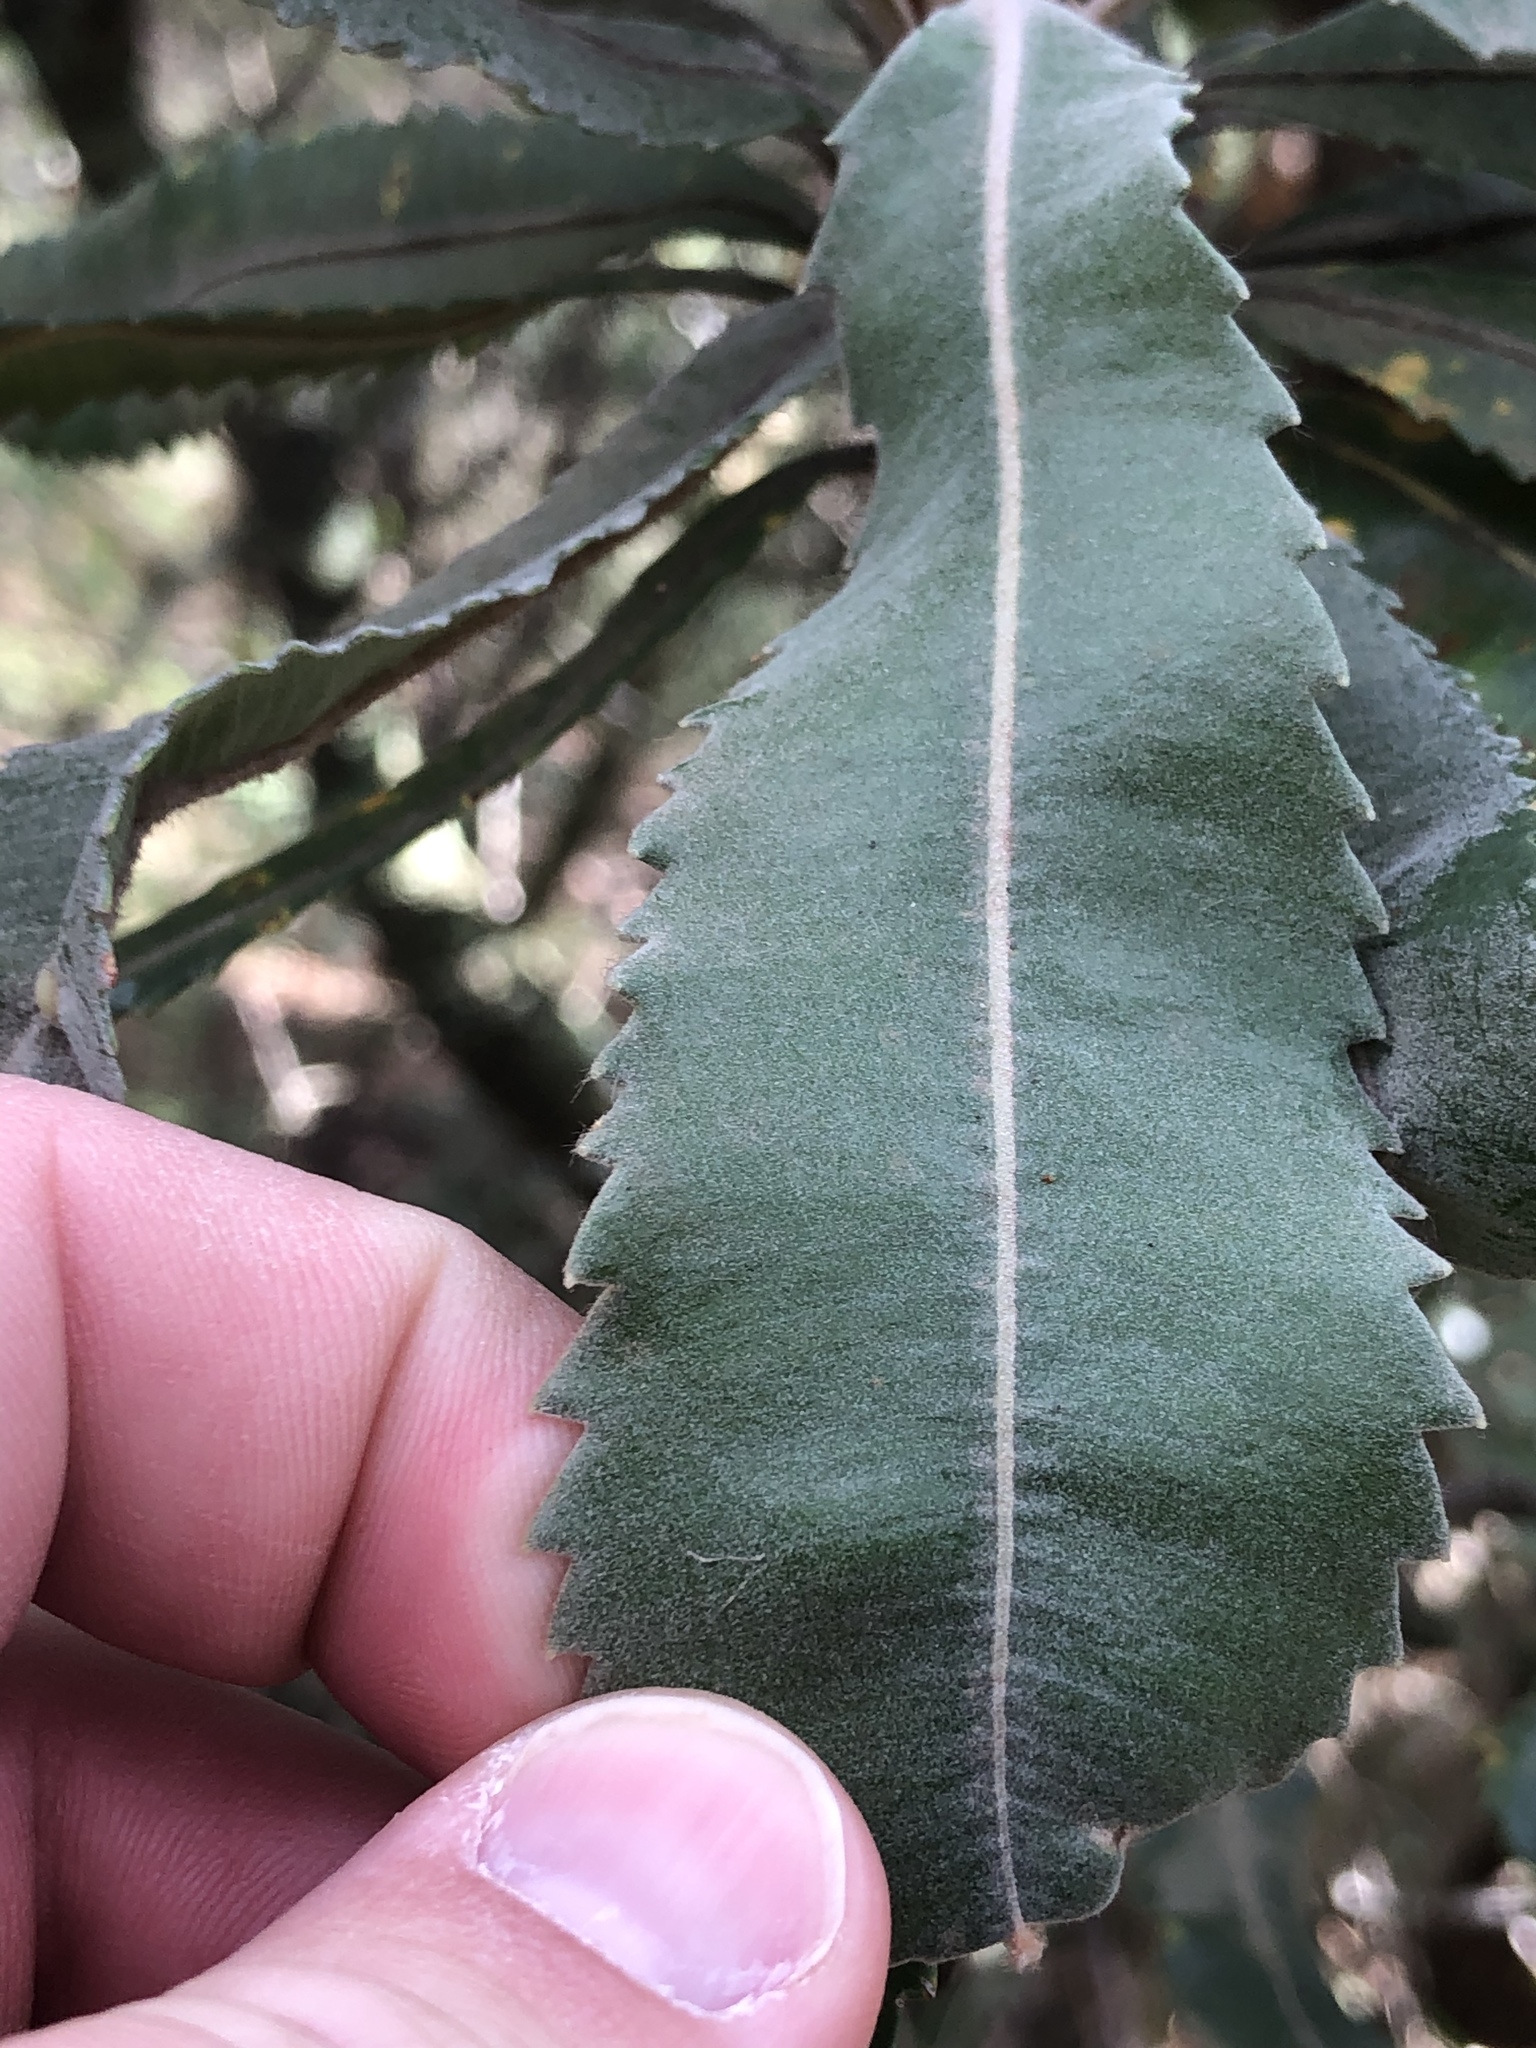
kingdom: Plantae
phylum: Tracheophyta
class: Magnoliopsida
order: Proteales
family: Proteaceae
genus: Banksia
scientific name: Banksia serrata
